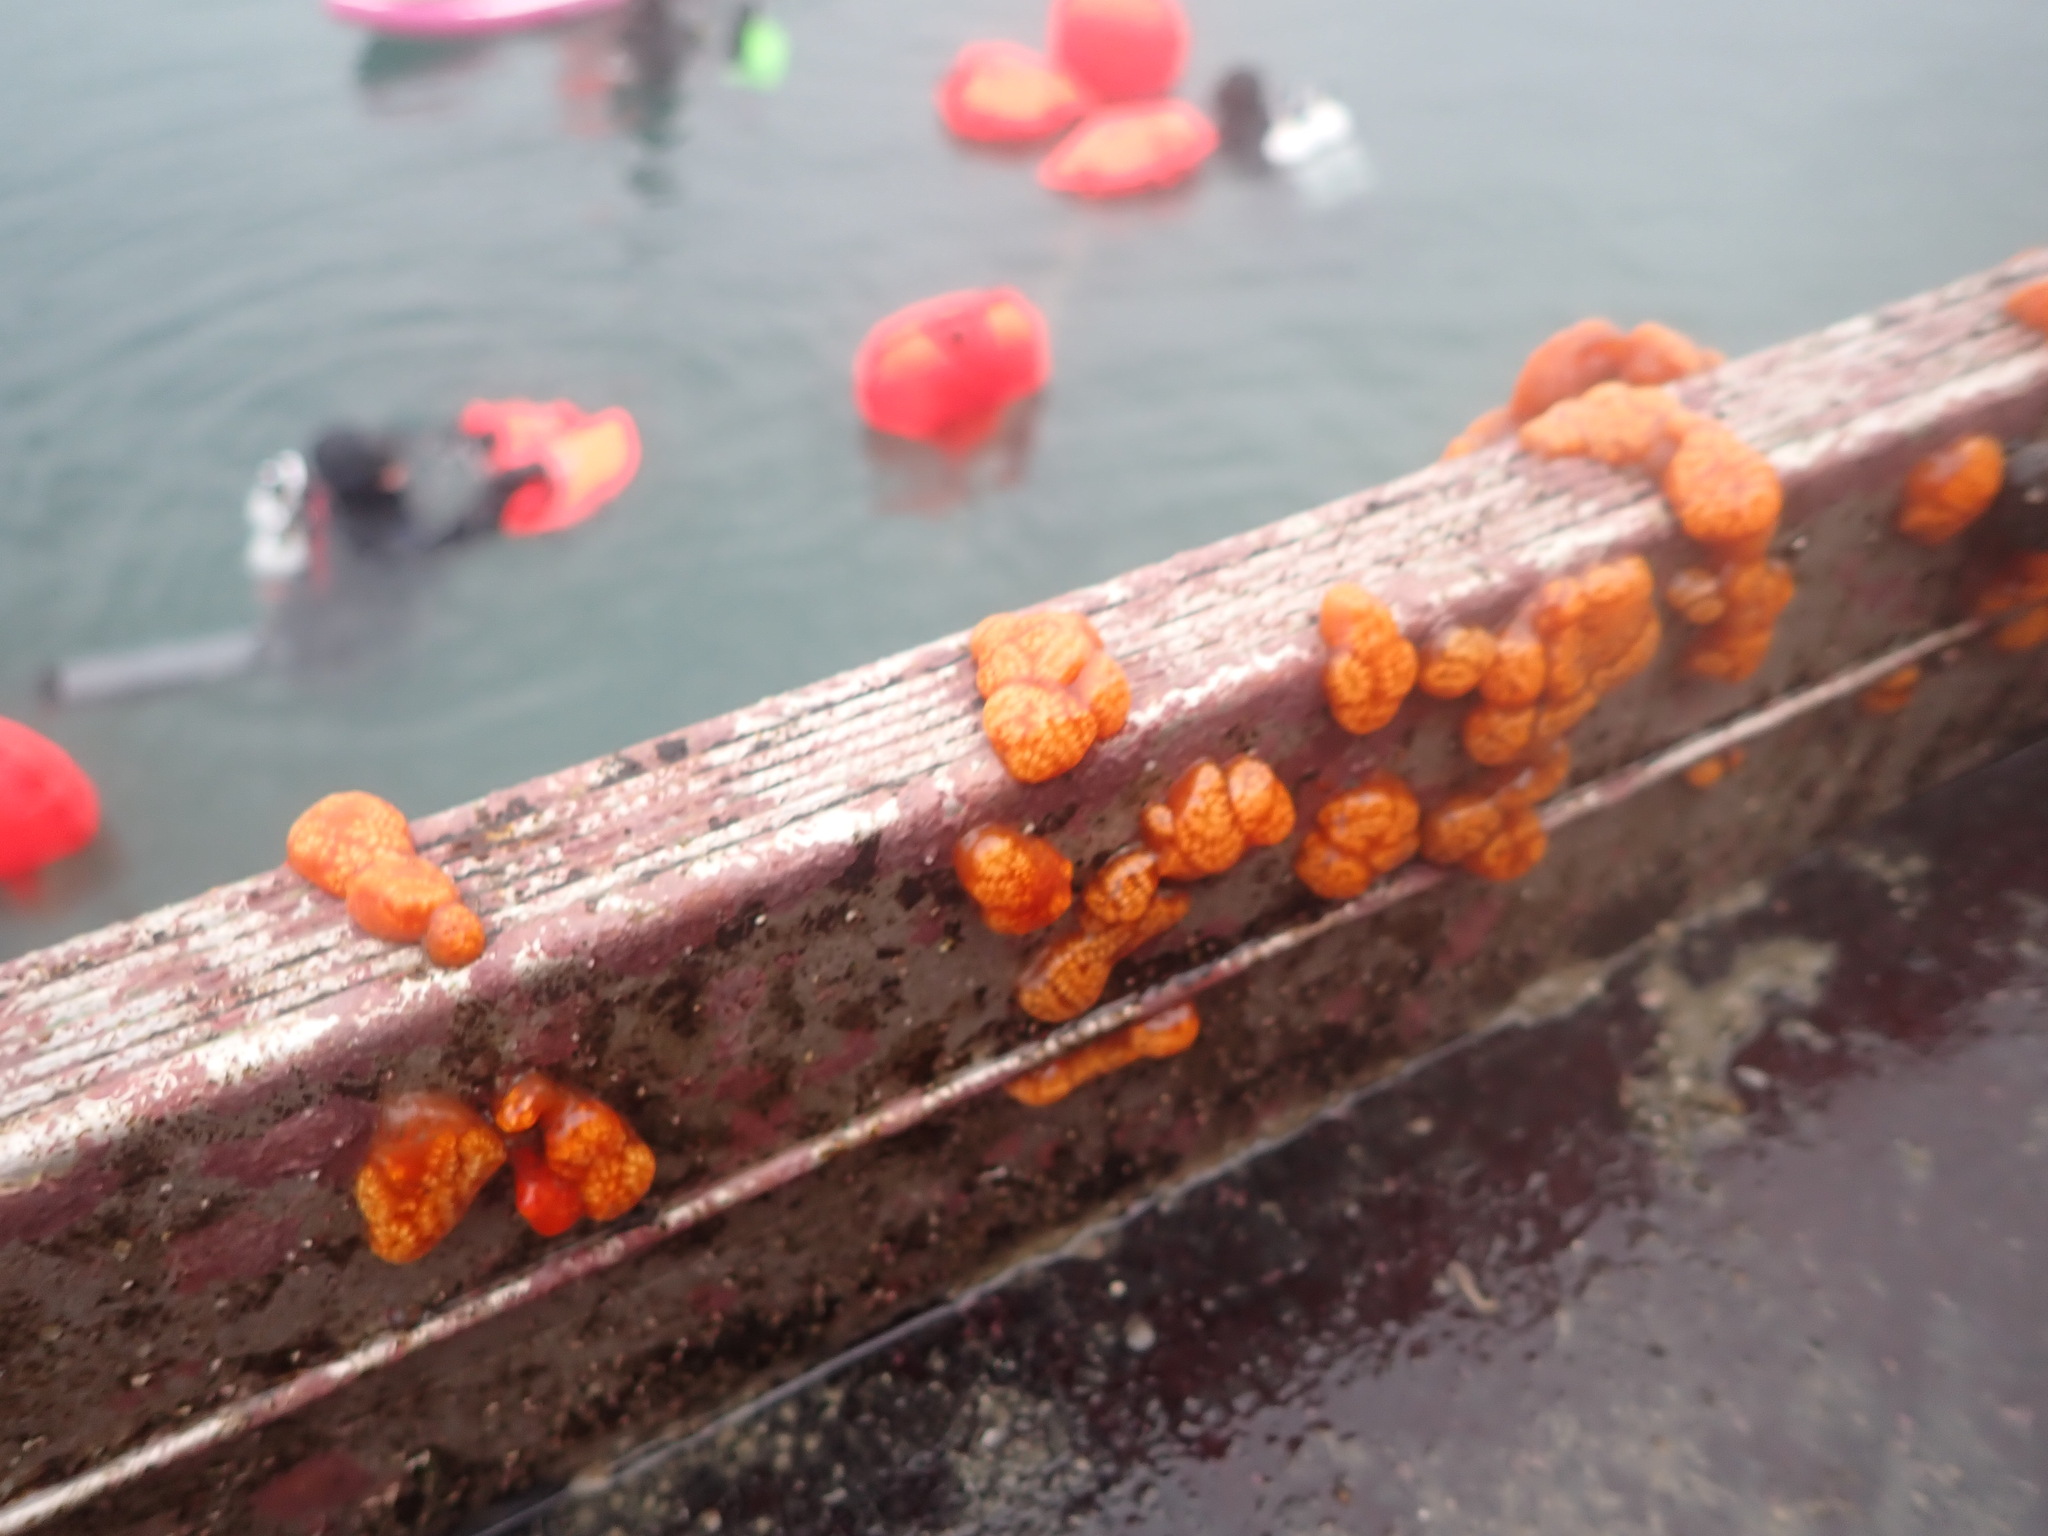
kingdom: Animalia
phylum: Chordata
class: Ascidiacea
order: Aplousobranchia
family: Polyclinidae
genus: Aplidium
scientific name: Aplidium benhami
